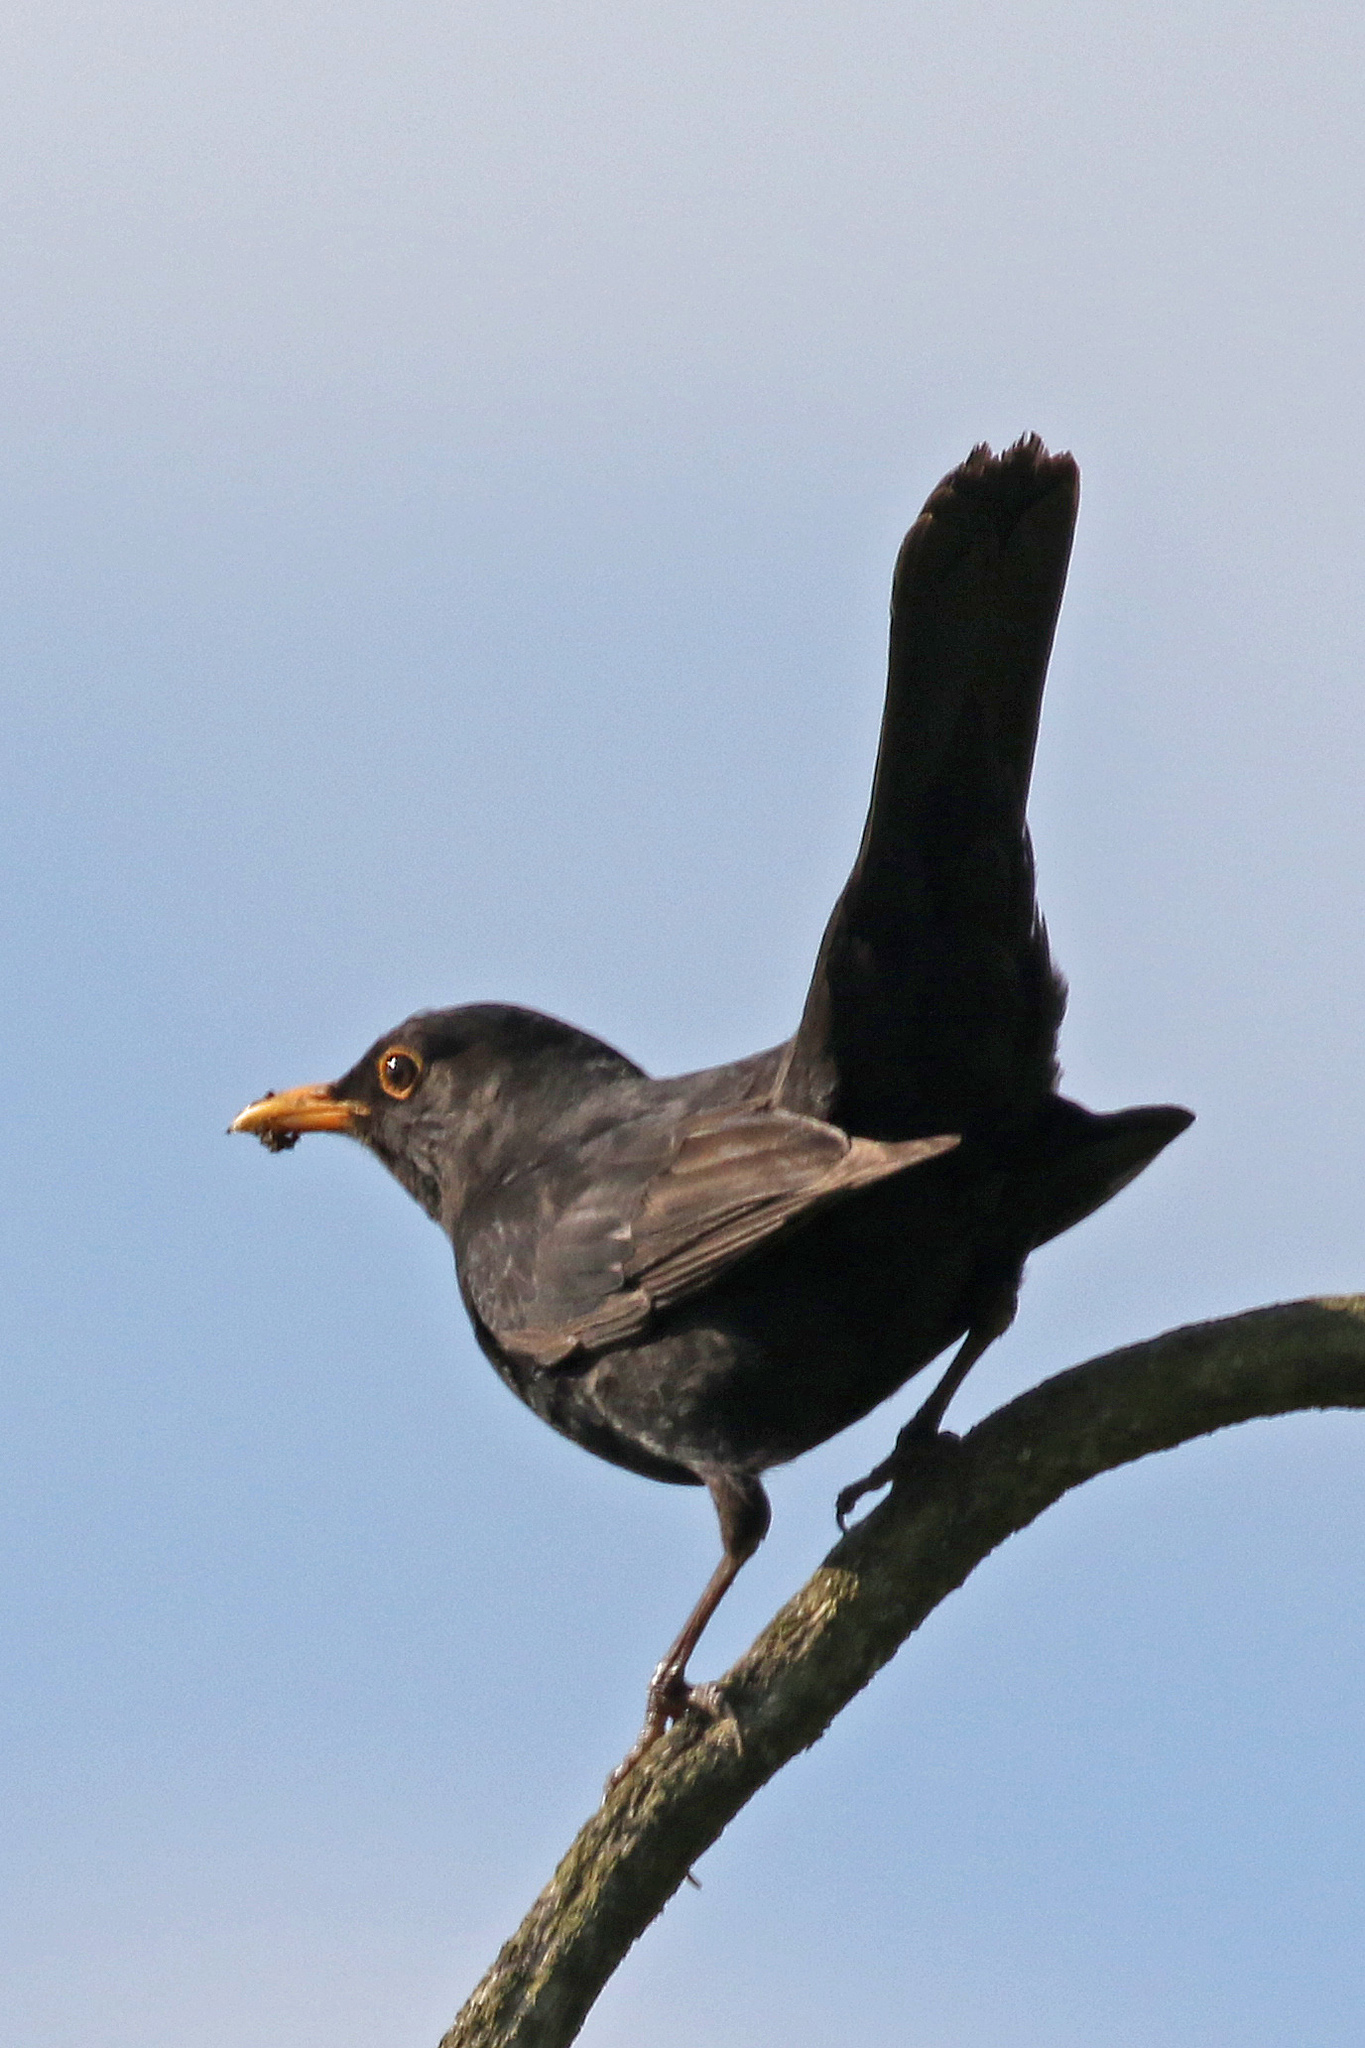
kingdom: Animalia
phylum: Chordata
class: Aves
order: Passeriformes
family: Turdidae
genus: Turdus
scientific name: Turdus merula
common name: Common blackbird
